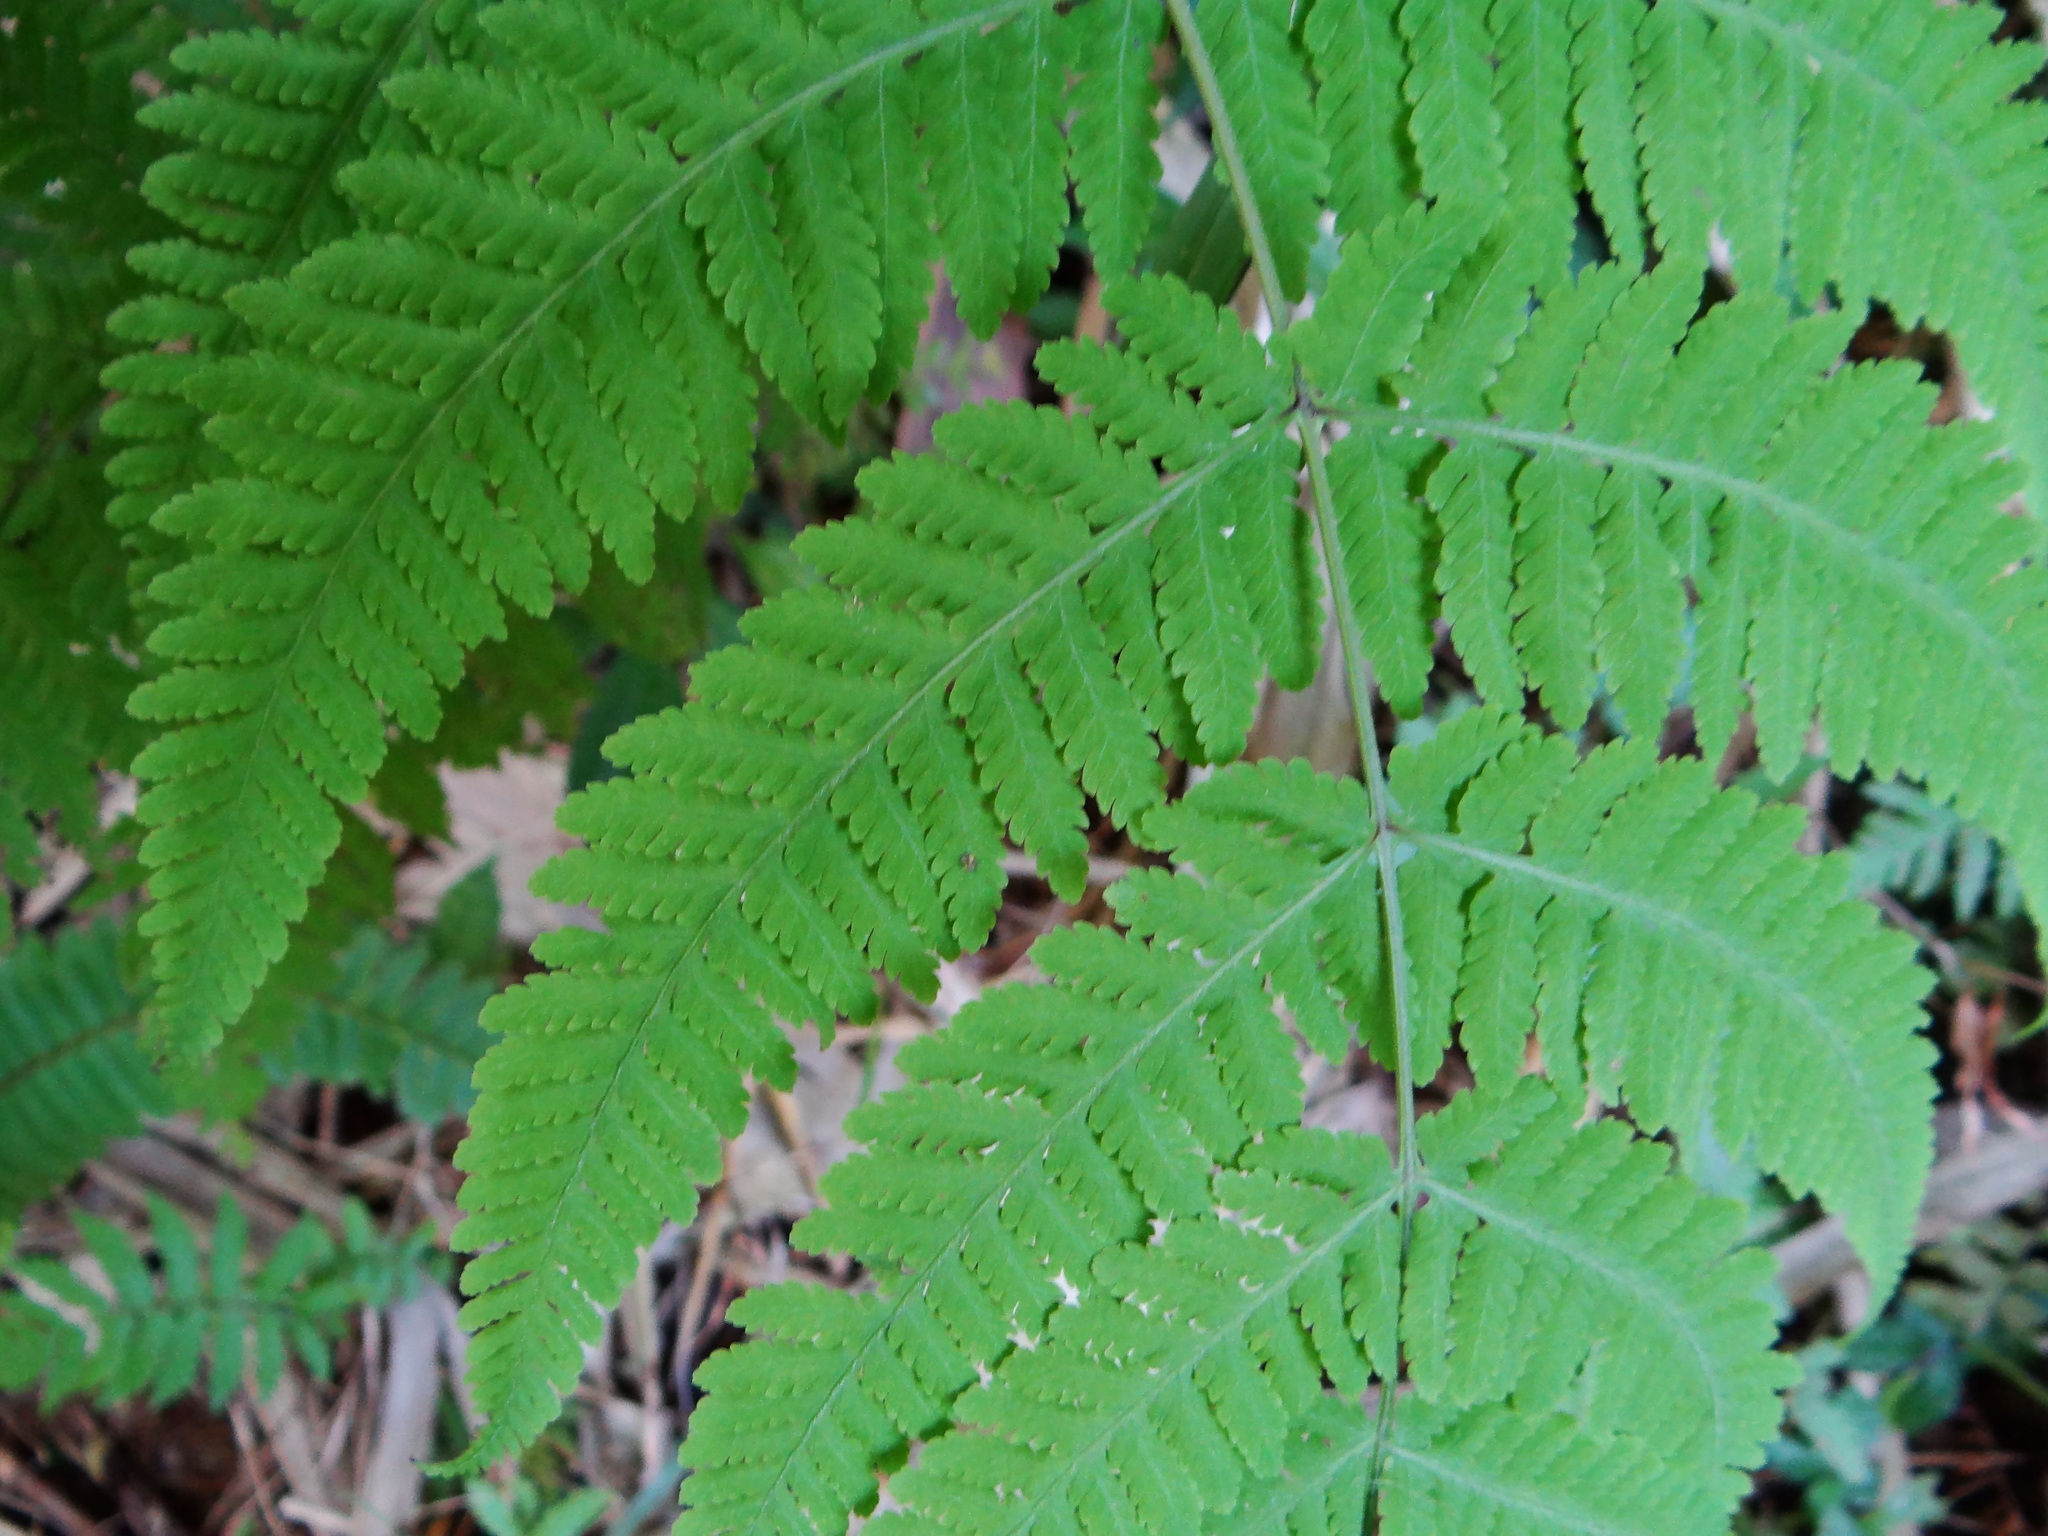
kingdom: Plantae
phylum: Tracheophyta
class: Polypodiopsida
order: Polypodiales
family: Thelypteridaceae
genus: Macrothelypteris
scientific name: Macrothelypteris torresiana
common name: Swordfern
